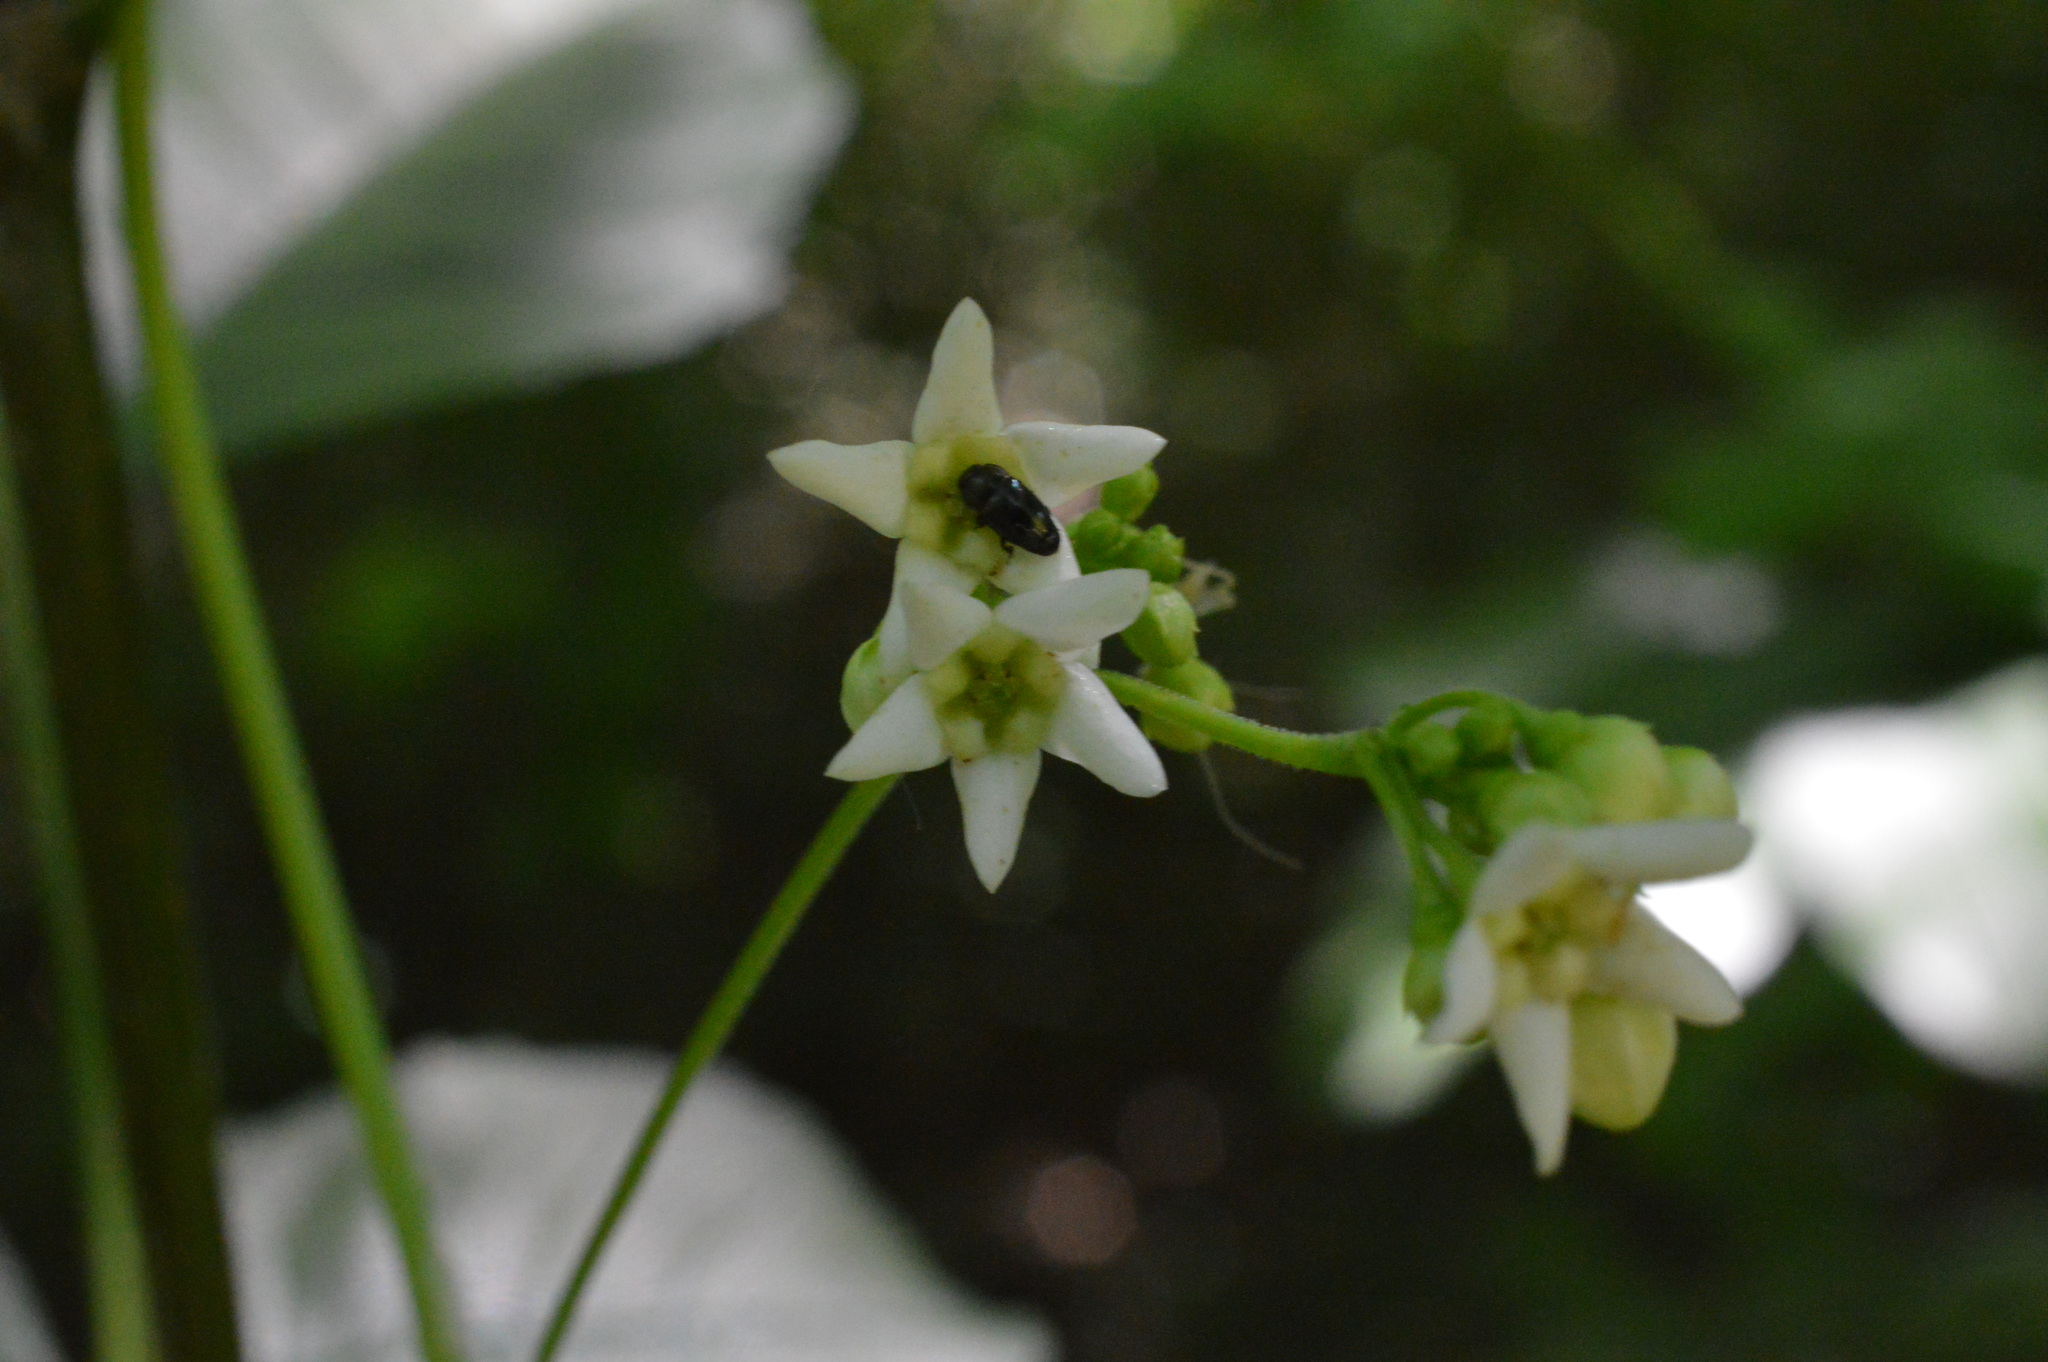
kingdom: Plantae
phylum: Tracheophyta
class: Magnoliopsida
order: Gentianales
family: Apocynaceae
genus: Vincetoxicum
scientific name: Vincetoxicum hirundinaria
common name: White swallowwort
